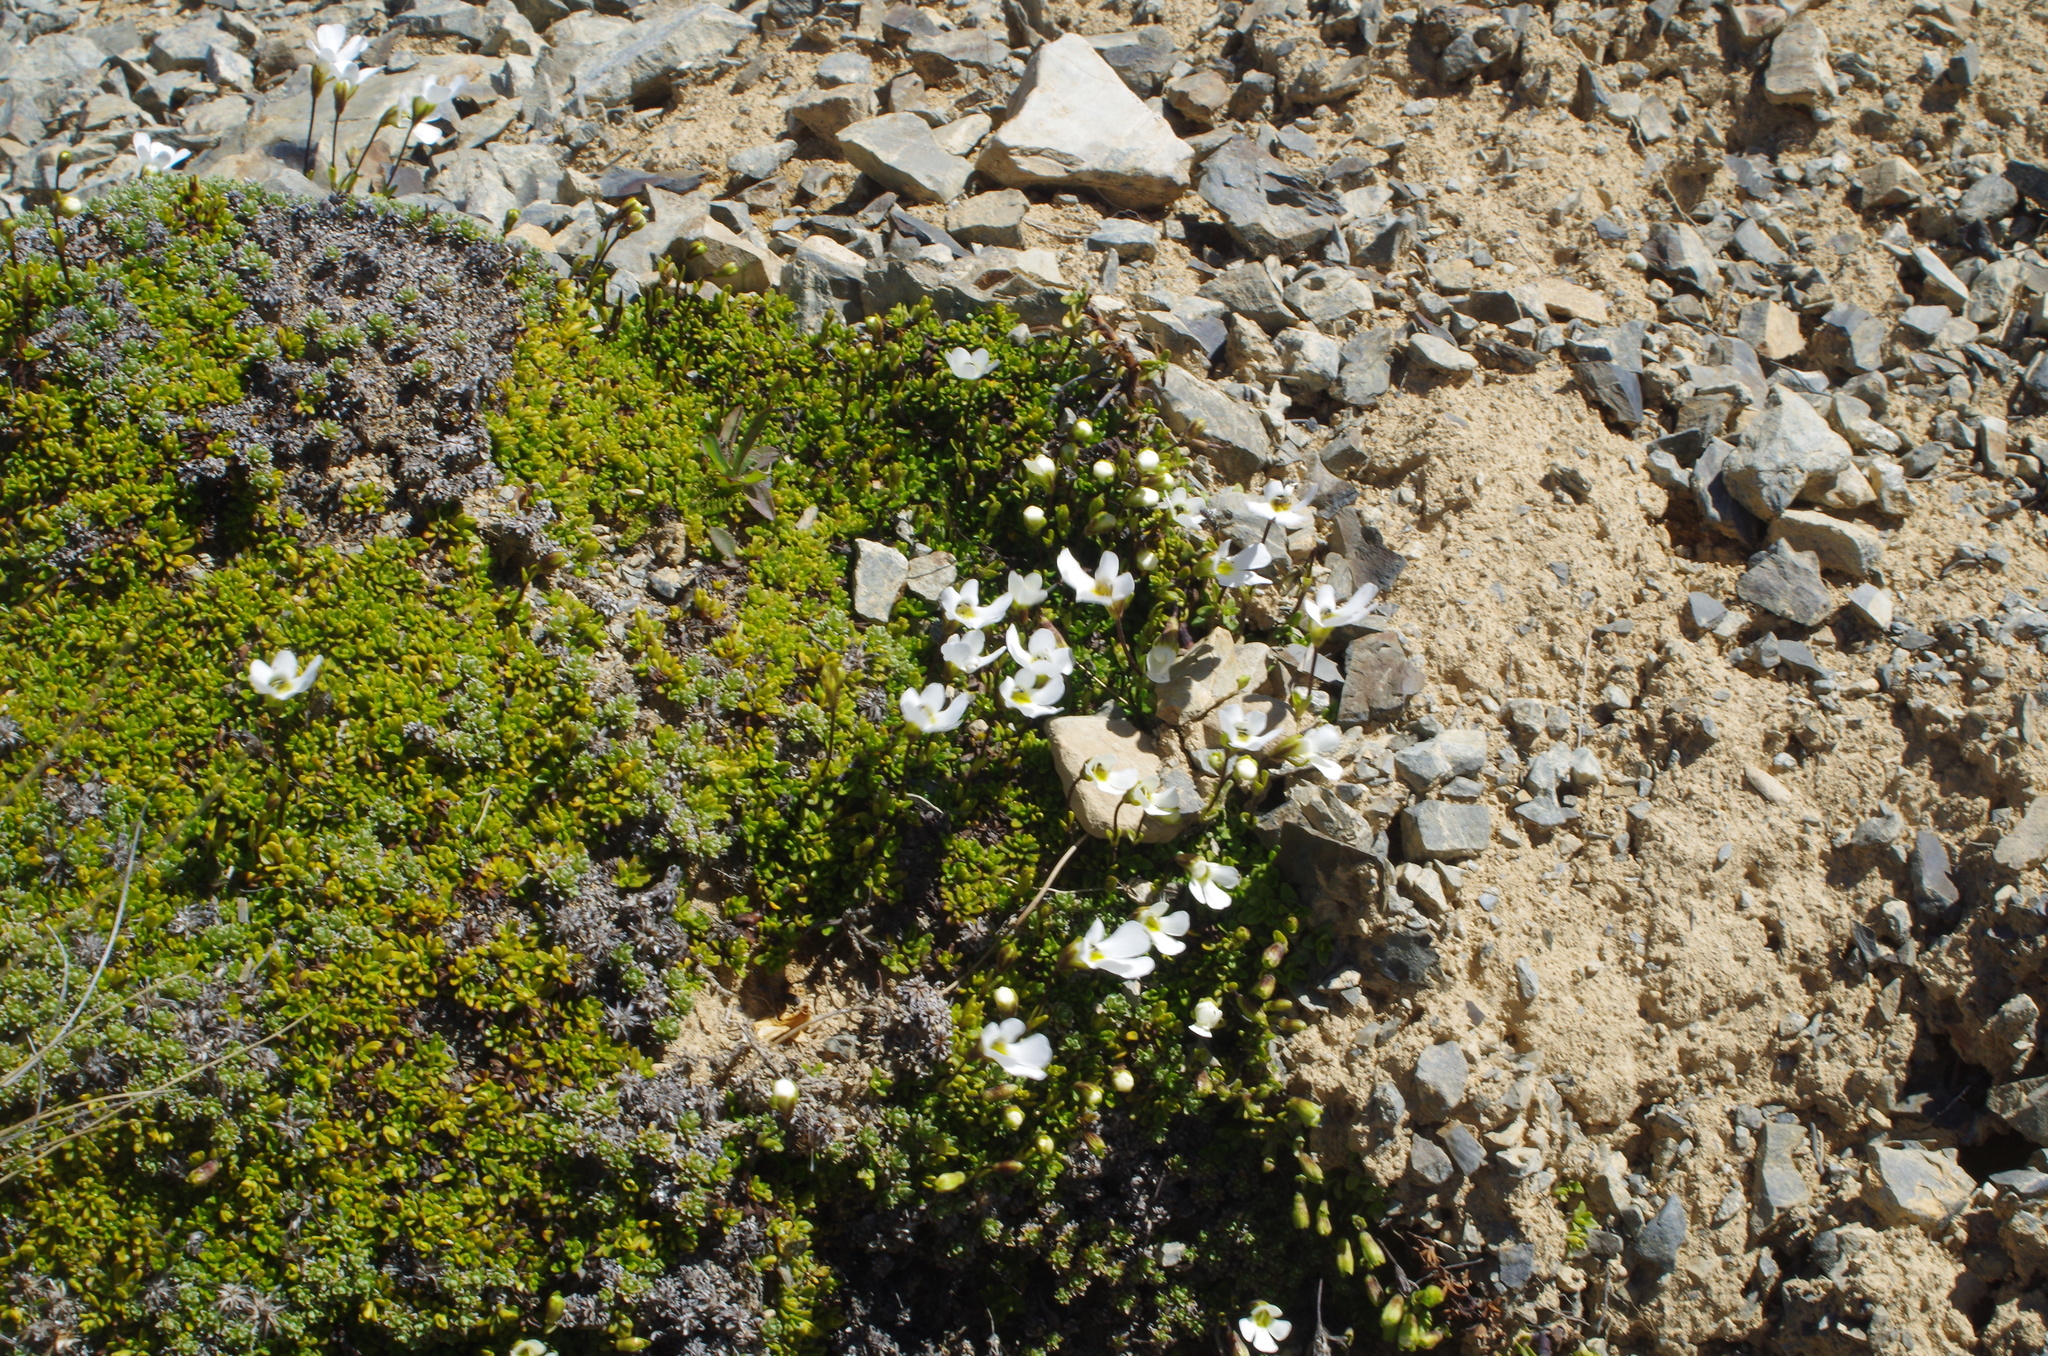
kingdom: Plantae
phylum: Tracheophyta
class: Magnoliopsida
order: Lamiales
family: Plantaginaceae
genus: Ourisia
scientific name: Ourisia caespitosa
